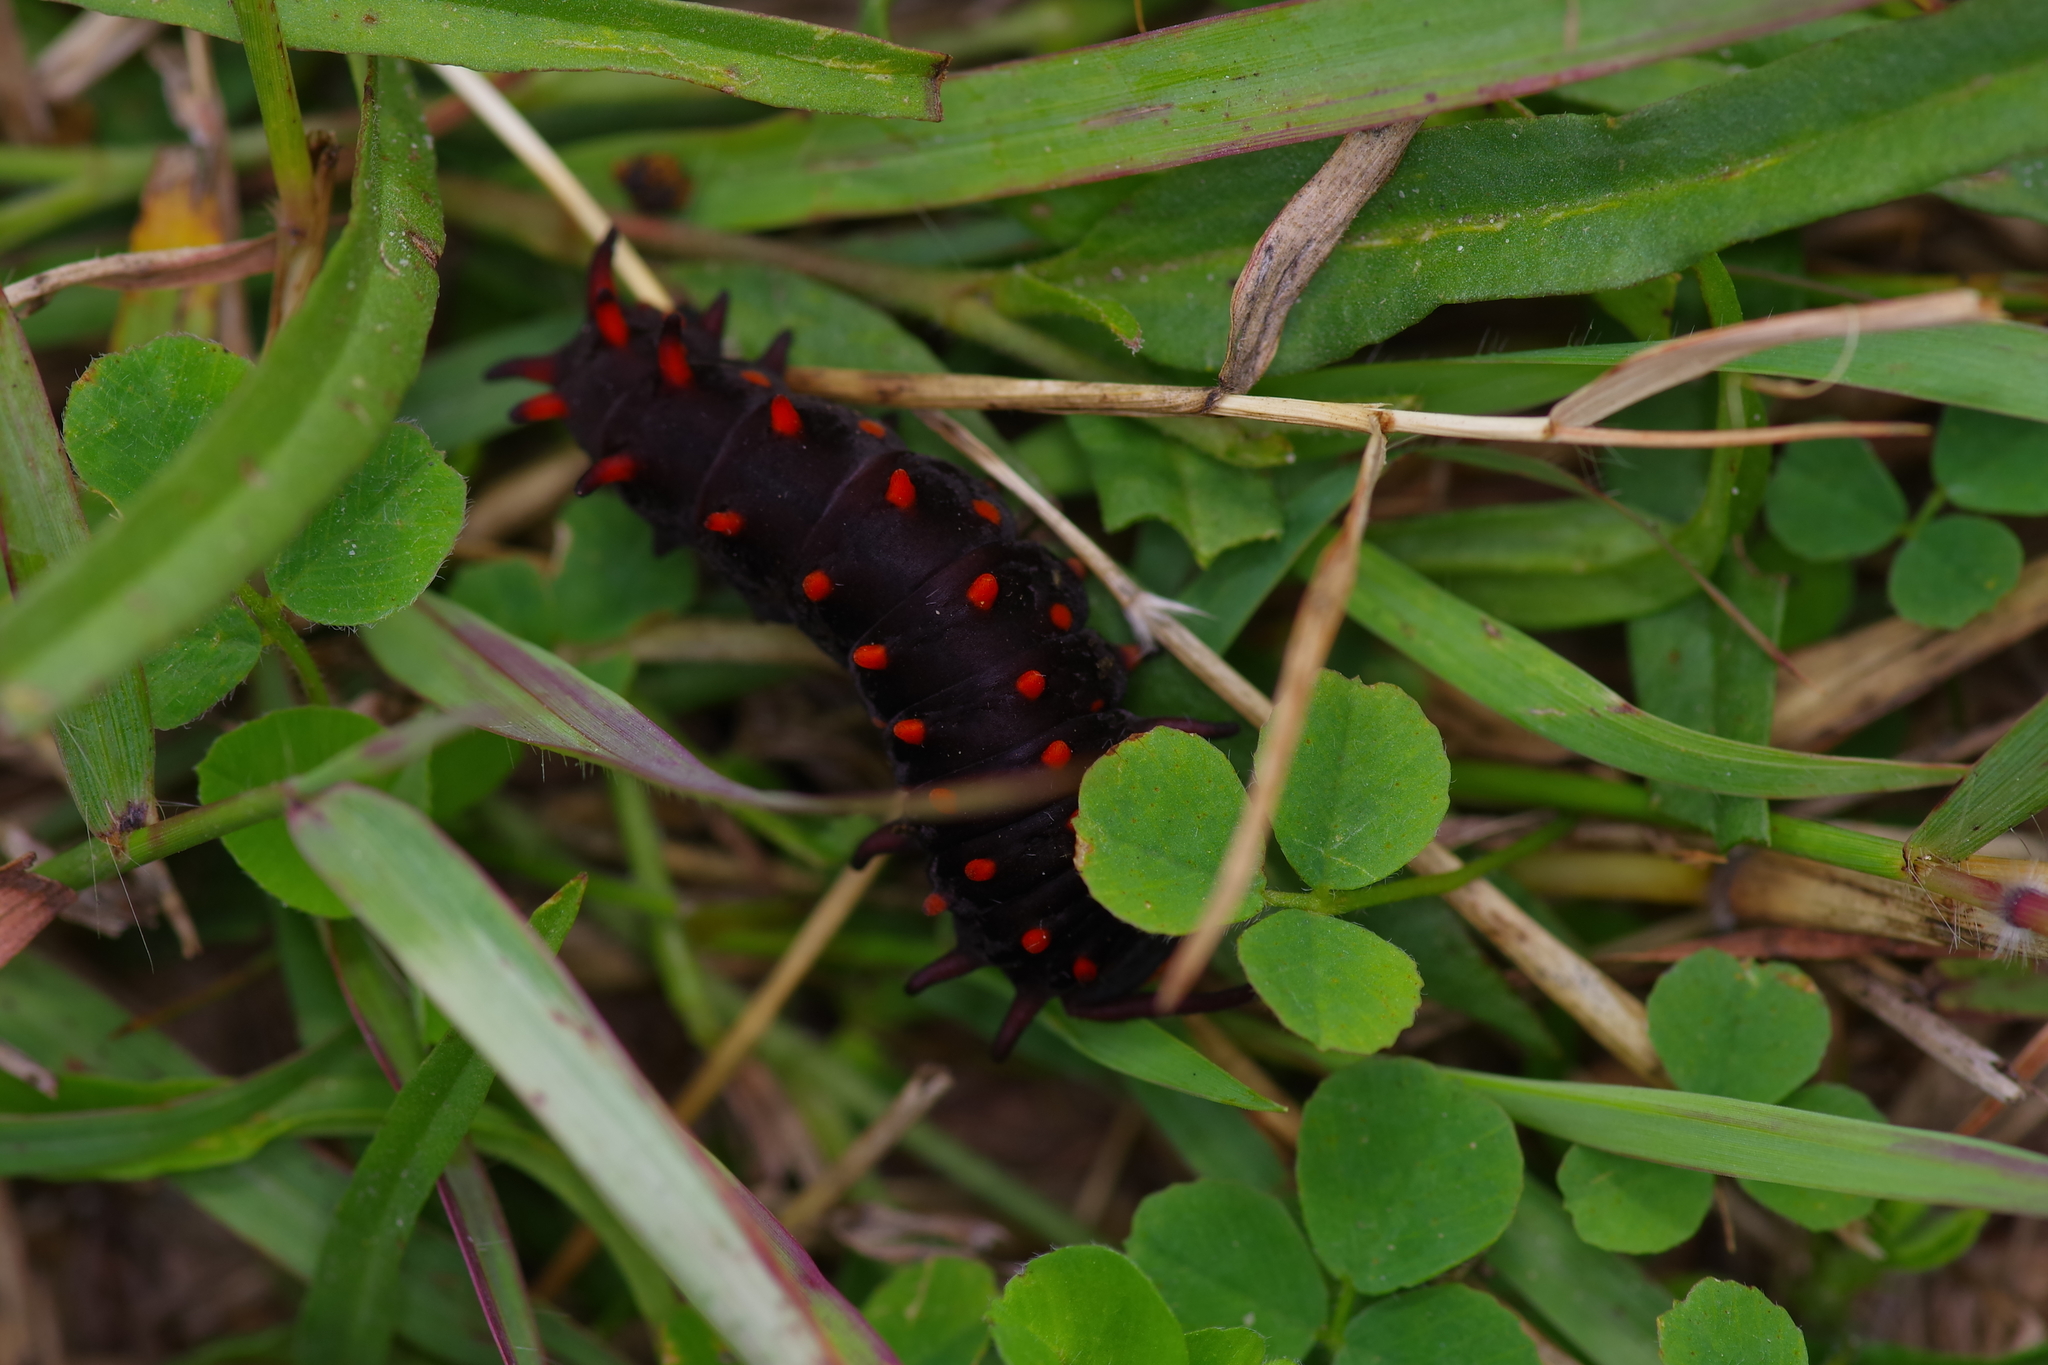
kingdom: Animalia
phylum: Arthropoda
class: Insecta
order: Lepidoptera
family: Papilionidae
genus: Battus
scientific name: Battus philenor
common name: Pipevine swallowtail
